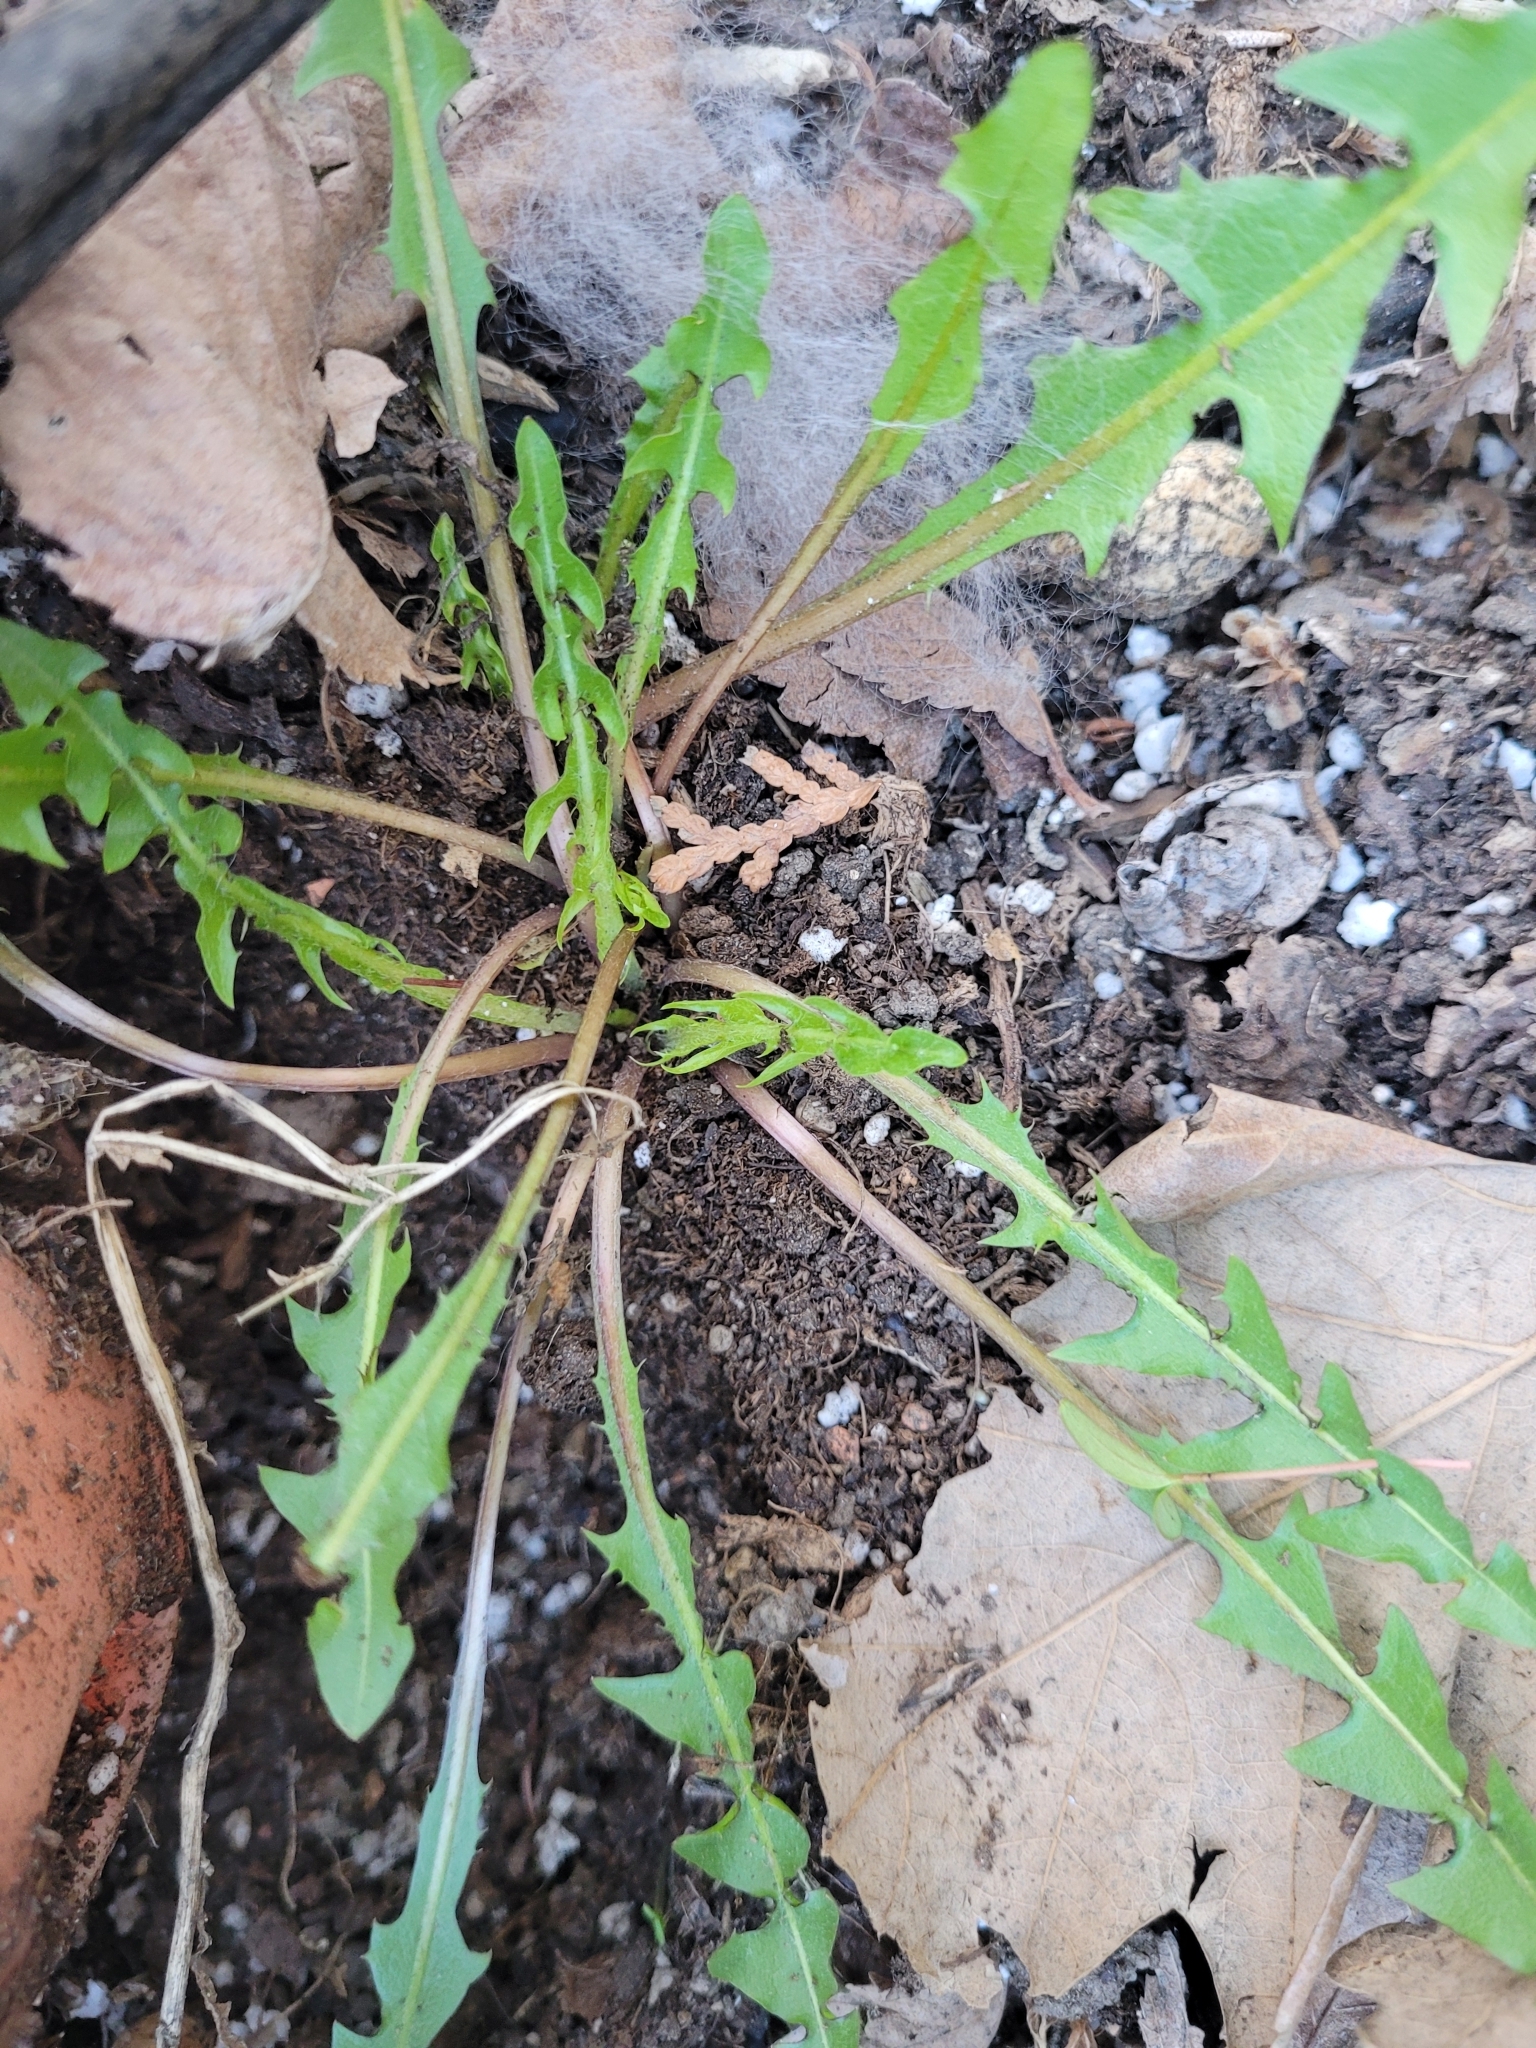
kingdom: Plantae
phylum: Tracheophyta
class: Magnoliopsida
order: Asterales
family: Asteraceae
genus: Taraxacum
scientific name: Taraxacum officinale
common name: Common dandelion
